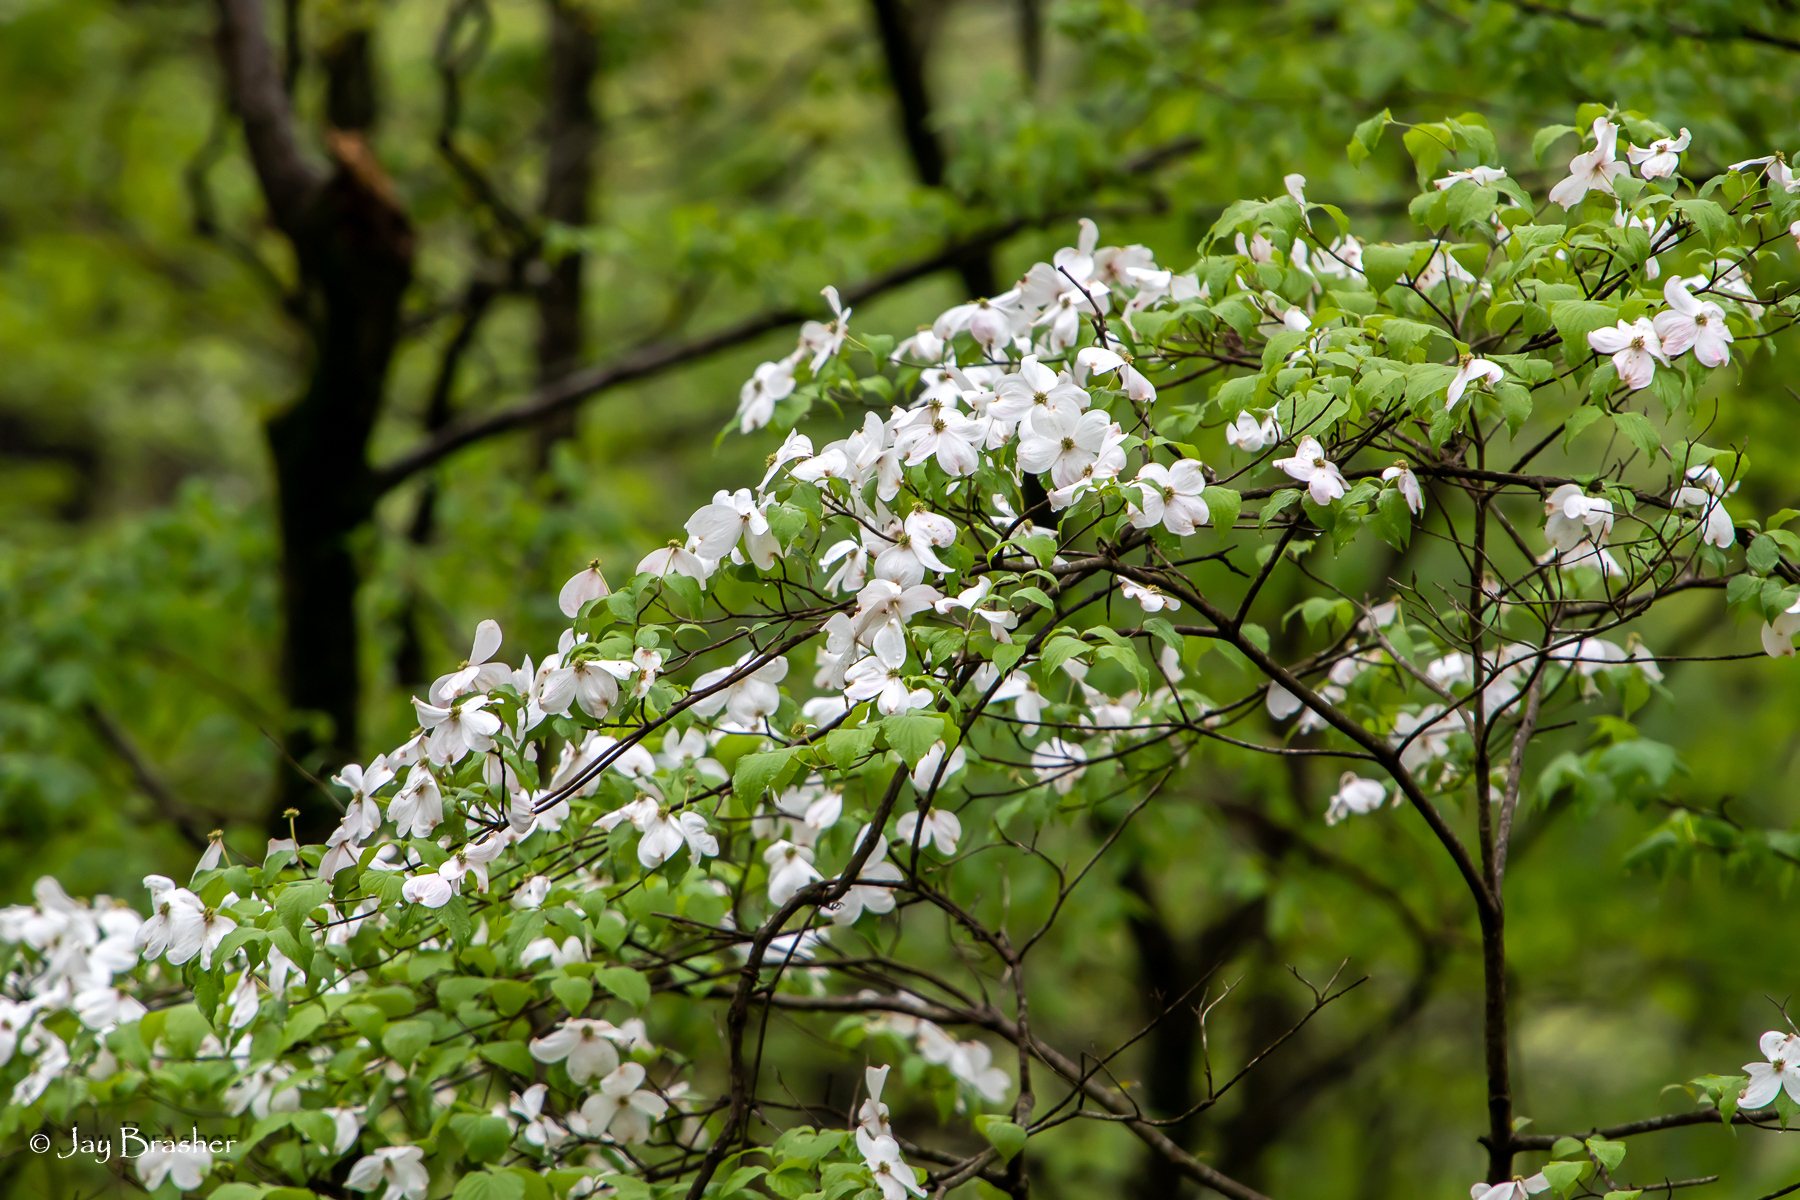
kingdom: Plantae
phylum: Tracheophyta
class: Magnoliopsida
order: Cornales
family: Cornaceae
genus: Cornus
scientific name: Cornus florida
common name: Flowering dogwood
